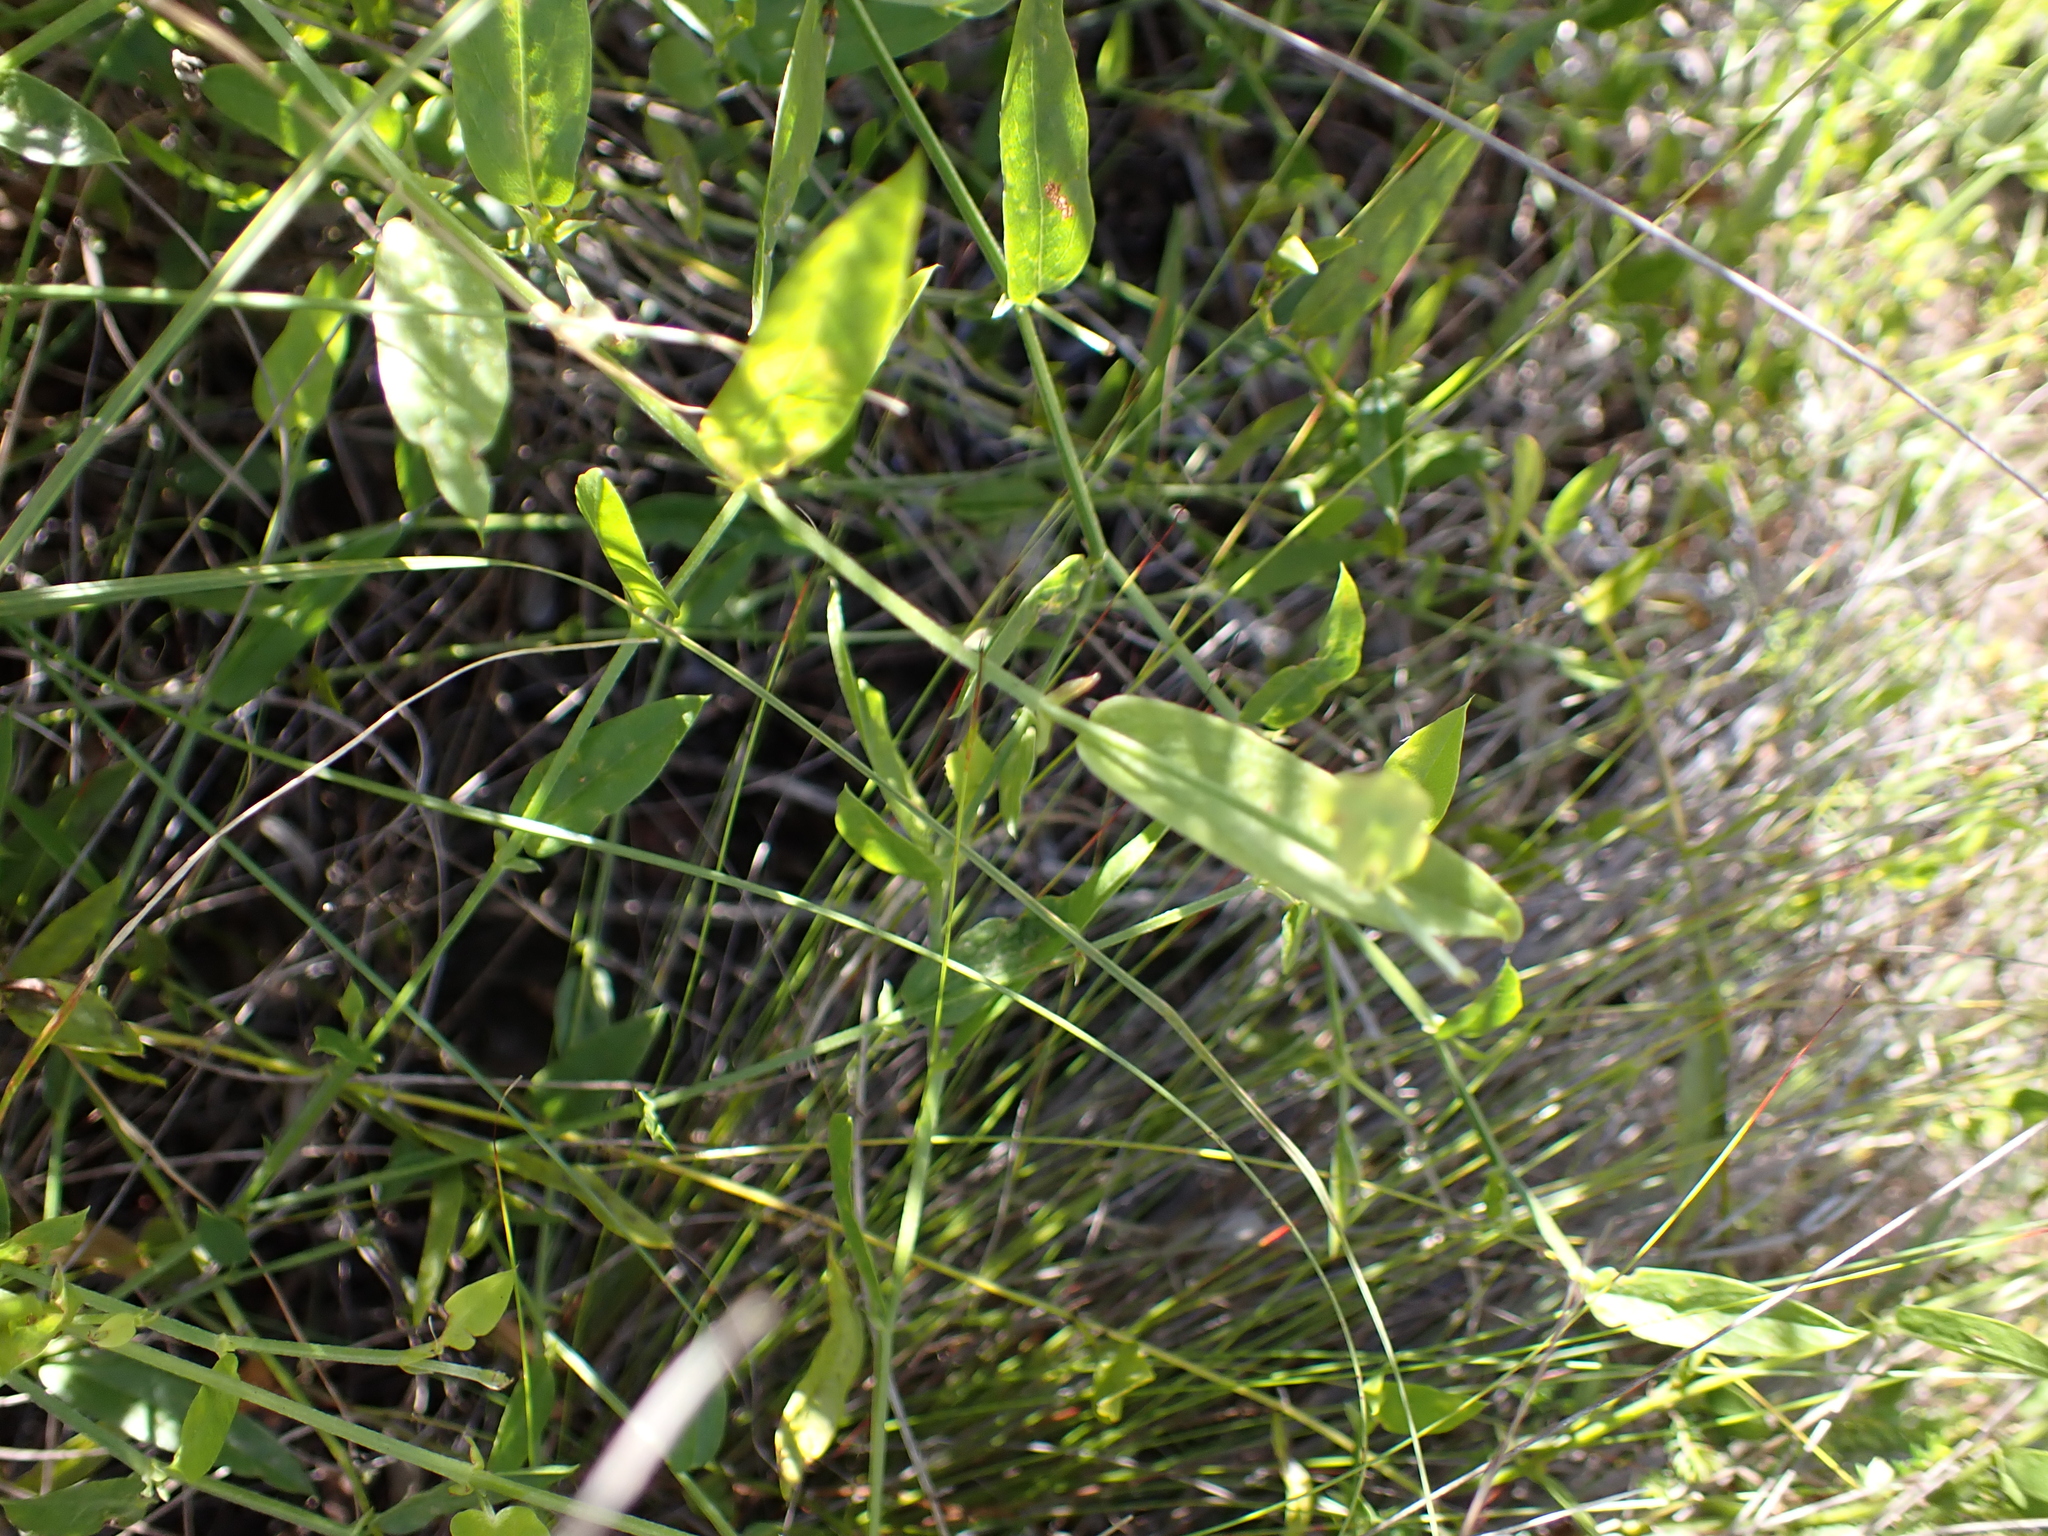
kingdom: Plantae
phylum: Tracheophyta
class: Magnoliopsida
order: Fabales
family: Fabaceae
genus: Psoralea
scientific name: Psoralea plauta
